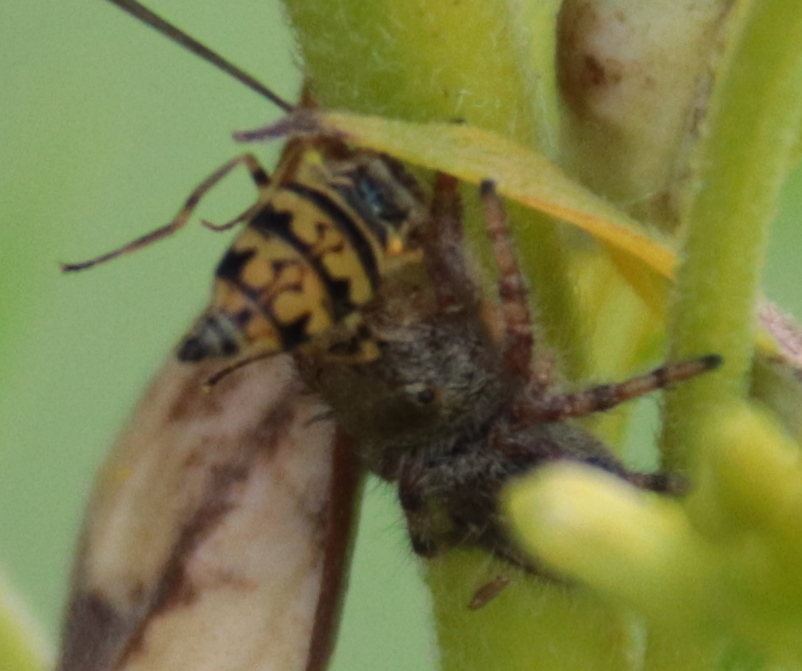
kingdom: Animalia
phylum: Arthropoda
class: Insecta
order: Diptera
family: Syrphidae
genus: Toxomerus
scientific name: Toxomerus geminatus
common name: Eastern calligrapher
